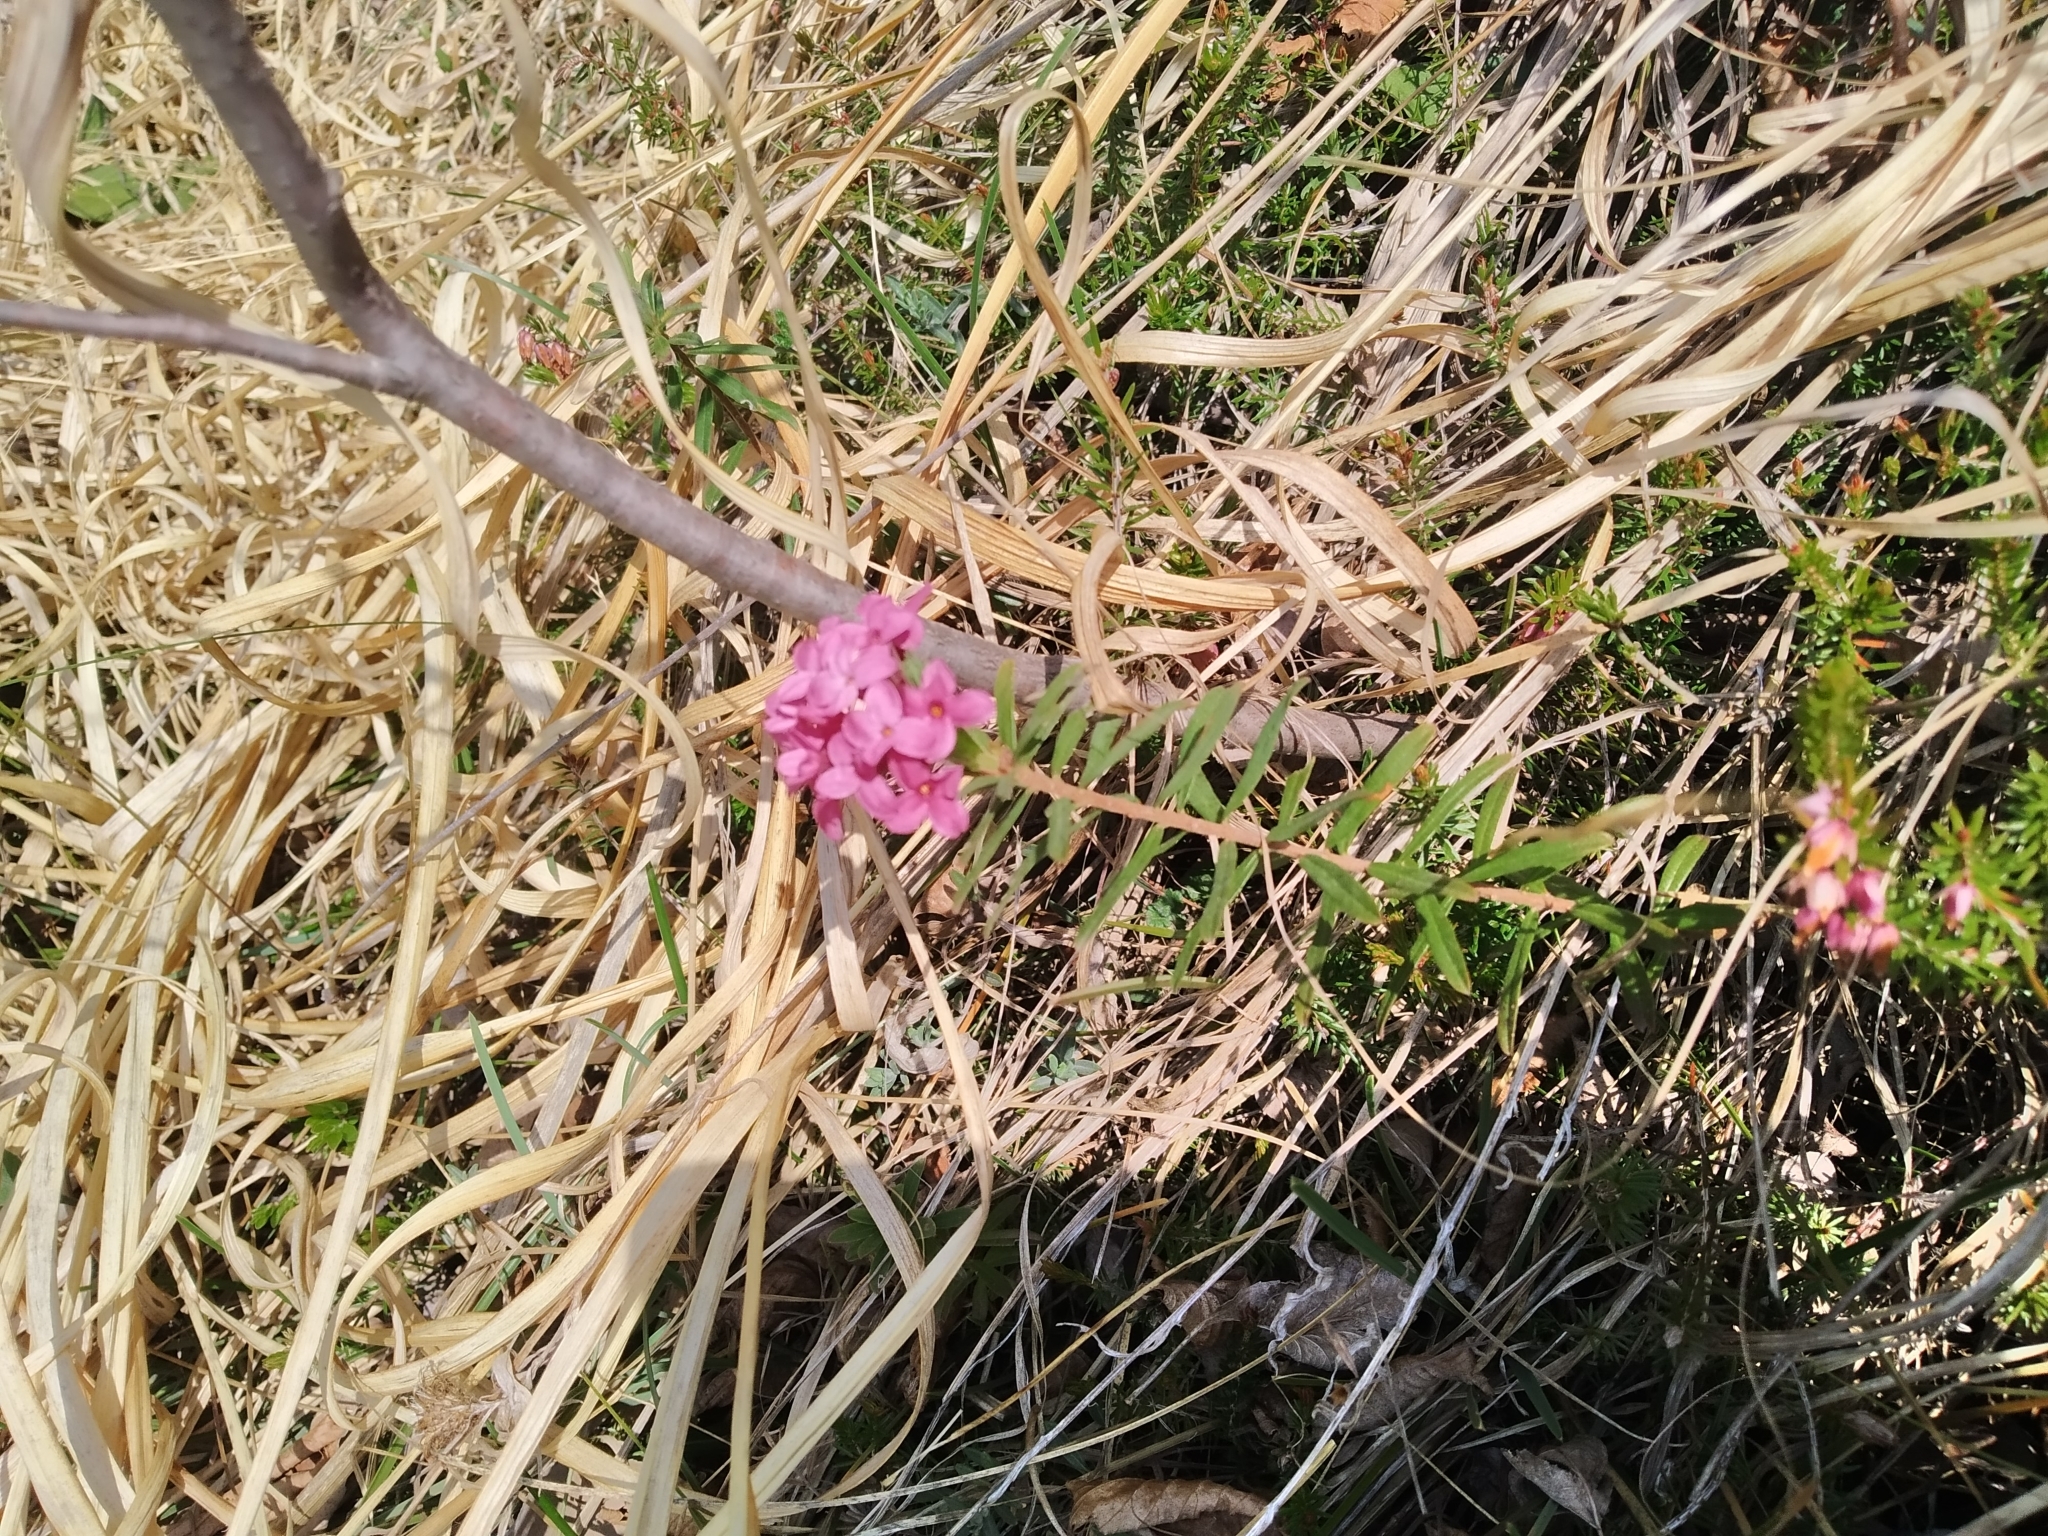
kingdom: Plantae
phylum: Tracheophyta
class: Magnoliopsida
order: Malvales
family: Thymelaeaceae
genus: Daphne
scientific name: Daphne cneorum
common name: Garland-flower
